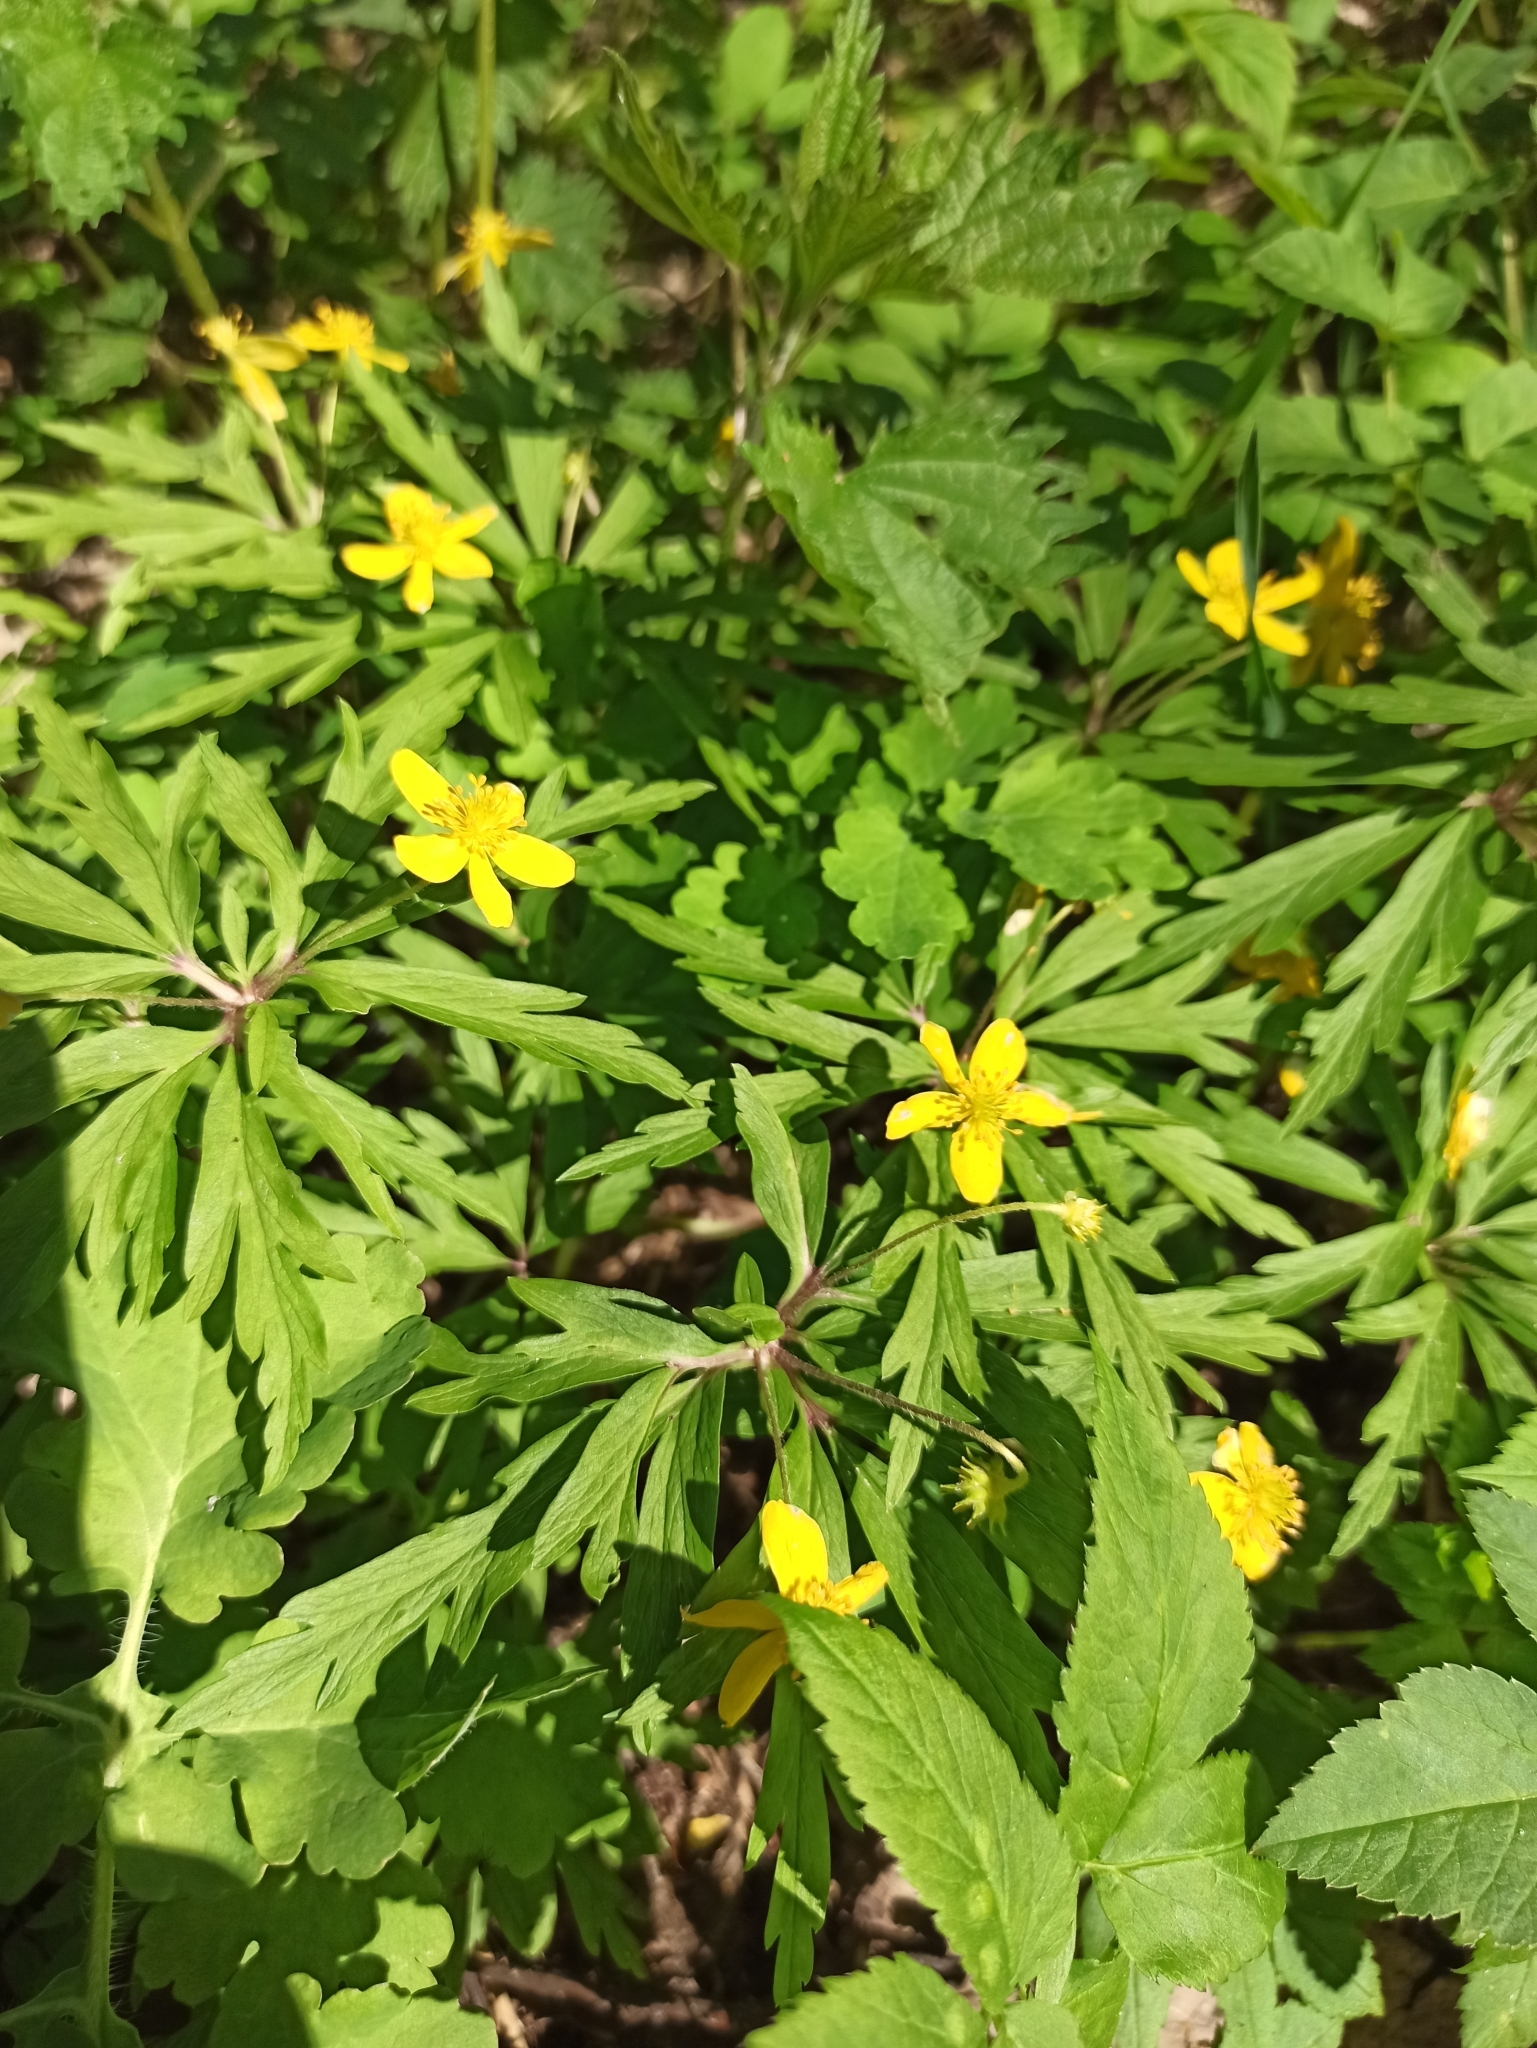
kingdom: Plantae
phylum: Tracheophyta
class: Magnoliopsida
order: Ranunculales
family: Ranunculaceae
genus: Anemone
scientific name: Anemone ranunculoides
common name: Yellow anemone
